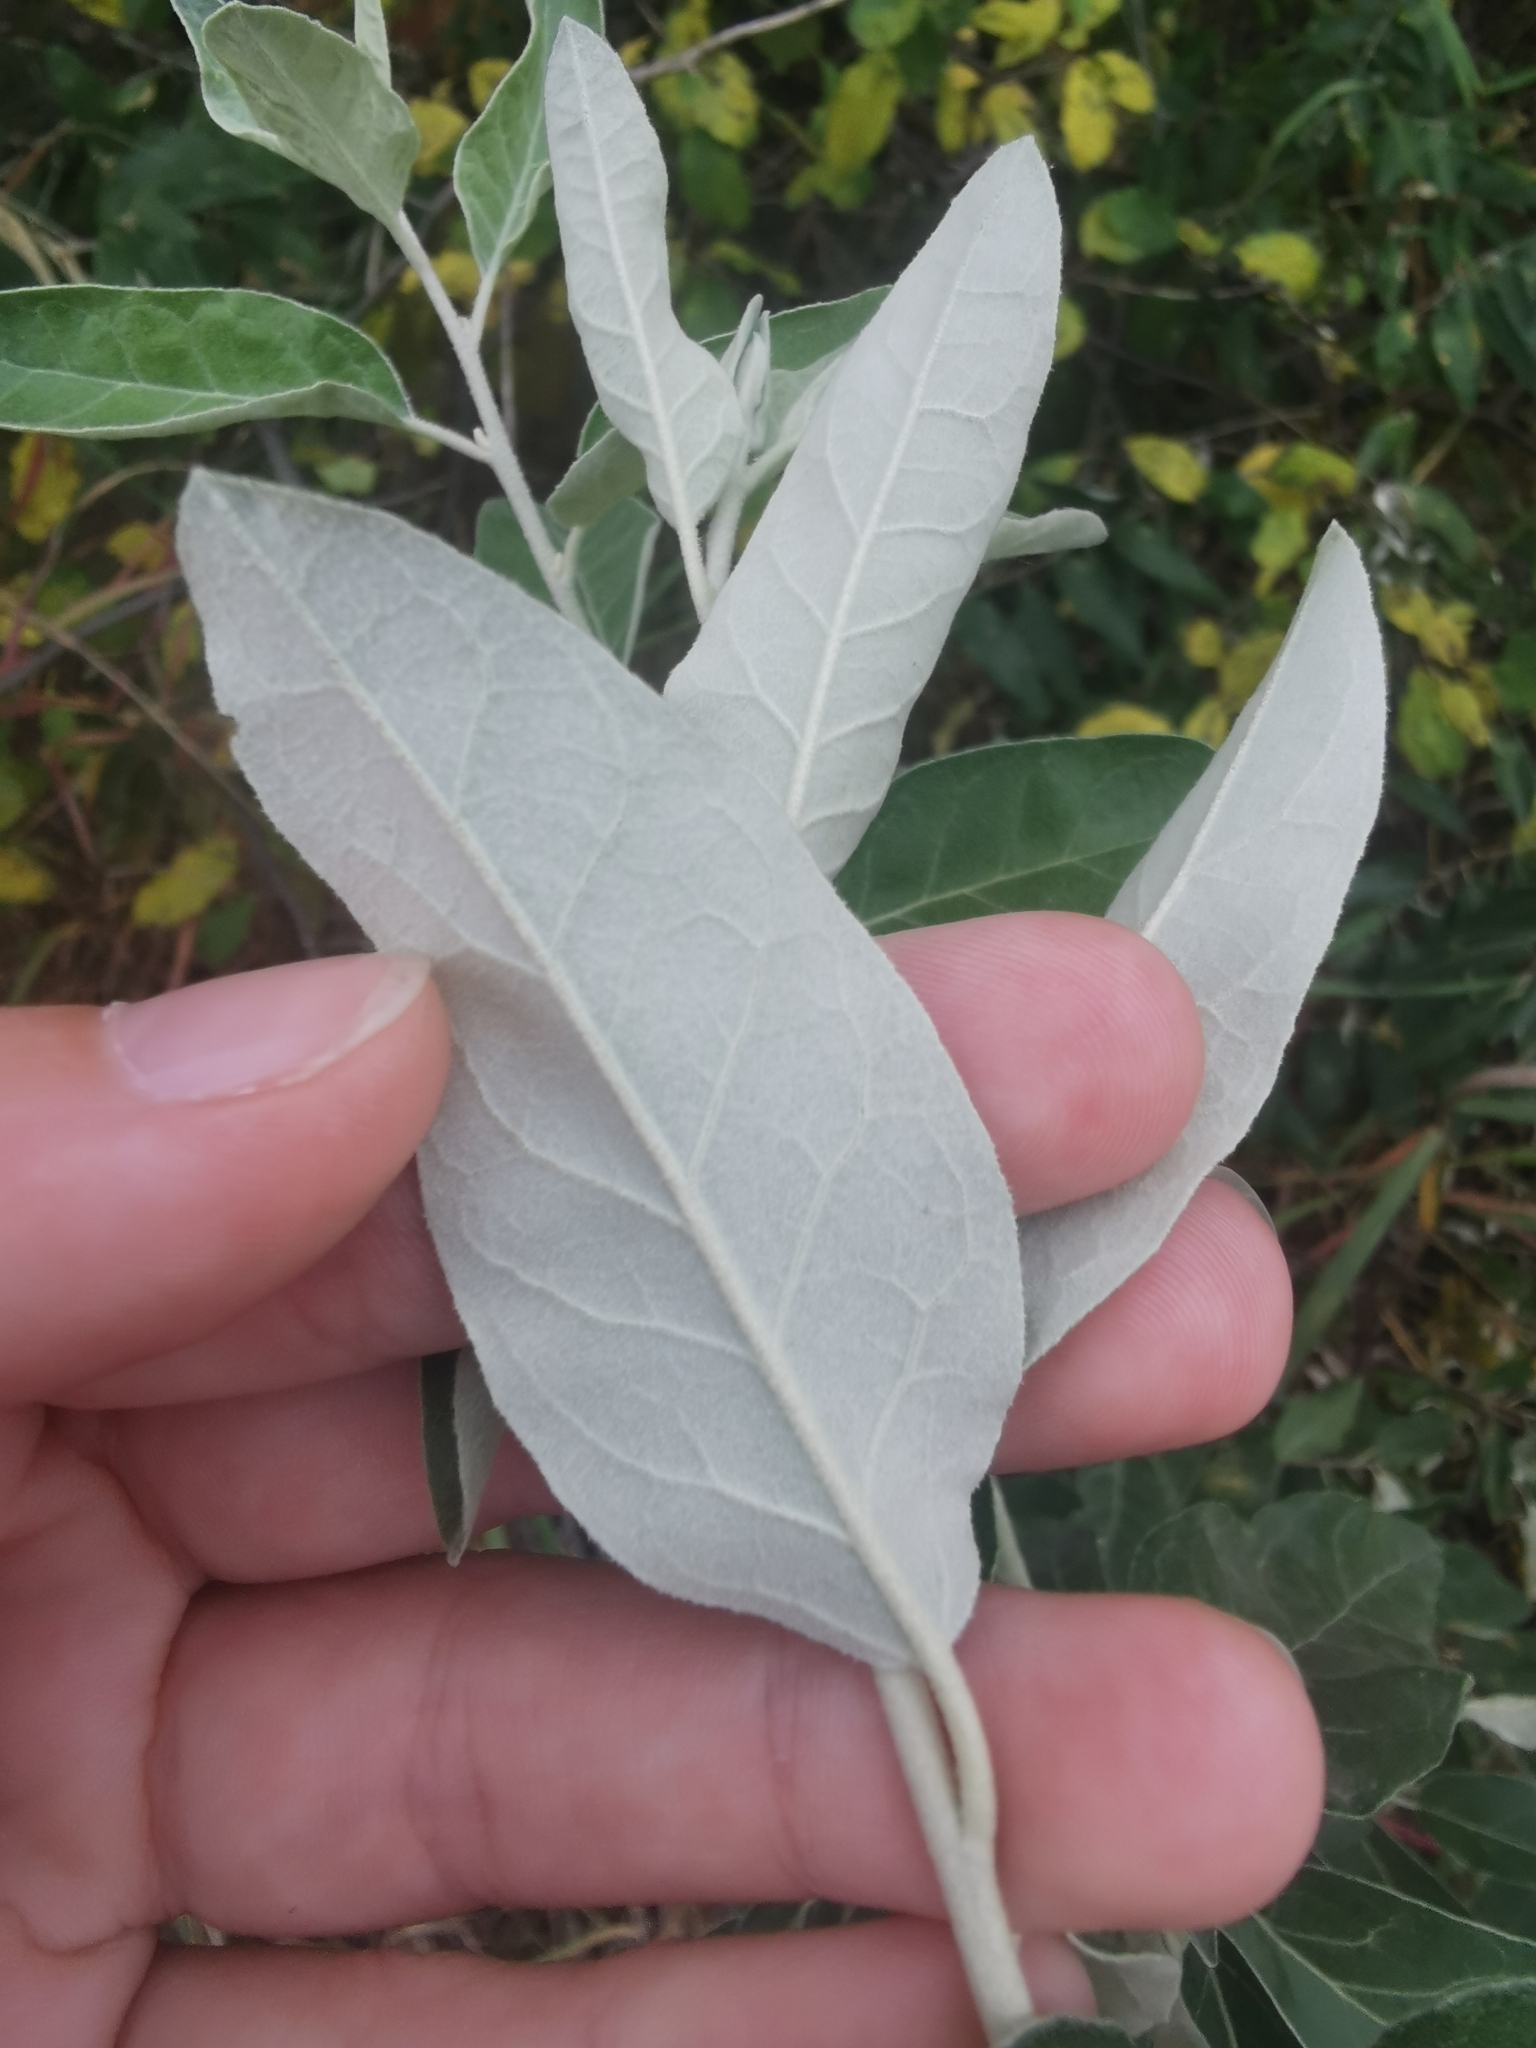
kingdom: Plantae
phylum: Tracheophyta
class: Magnoliopsida
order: Rosales
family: Elaeagnaceae
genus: Elaeagnus
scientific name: Elaeagnus angustifolia
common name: Russian olive
